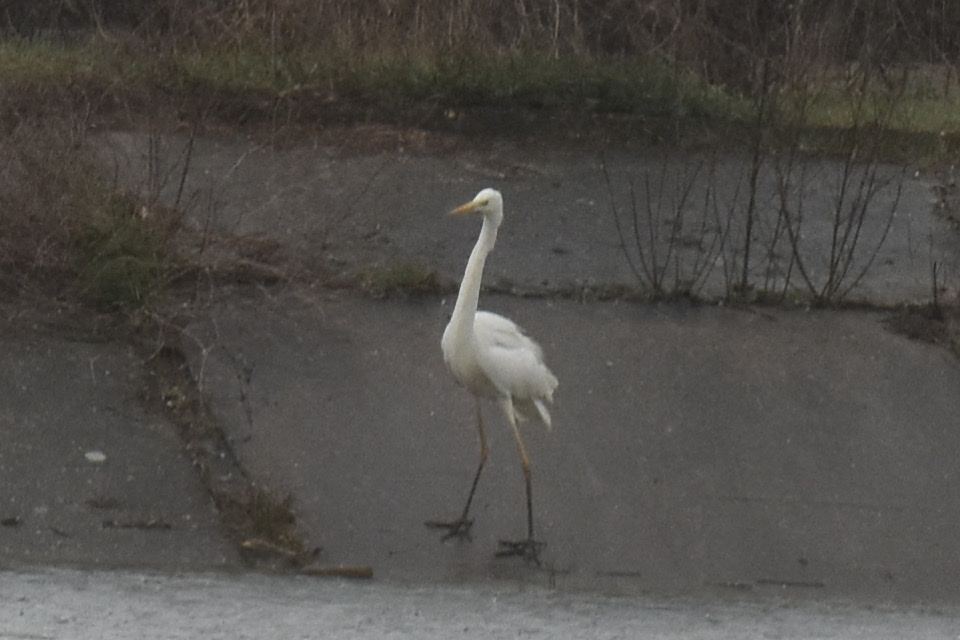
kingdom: Animalia
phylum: Chordata
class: Aves
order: Pelecaniformes
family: Ardeidae
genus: Ardea
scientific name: Ardea alba
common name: Great egret
